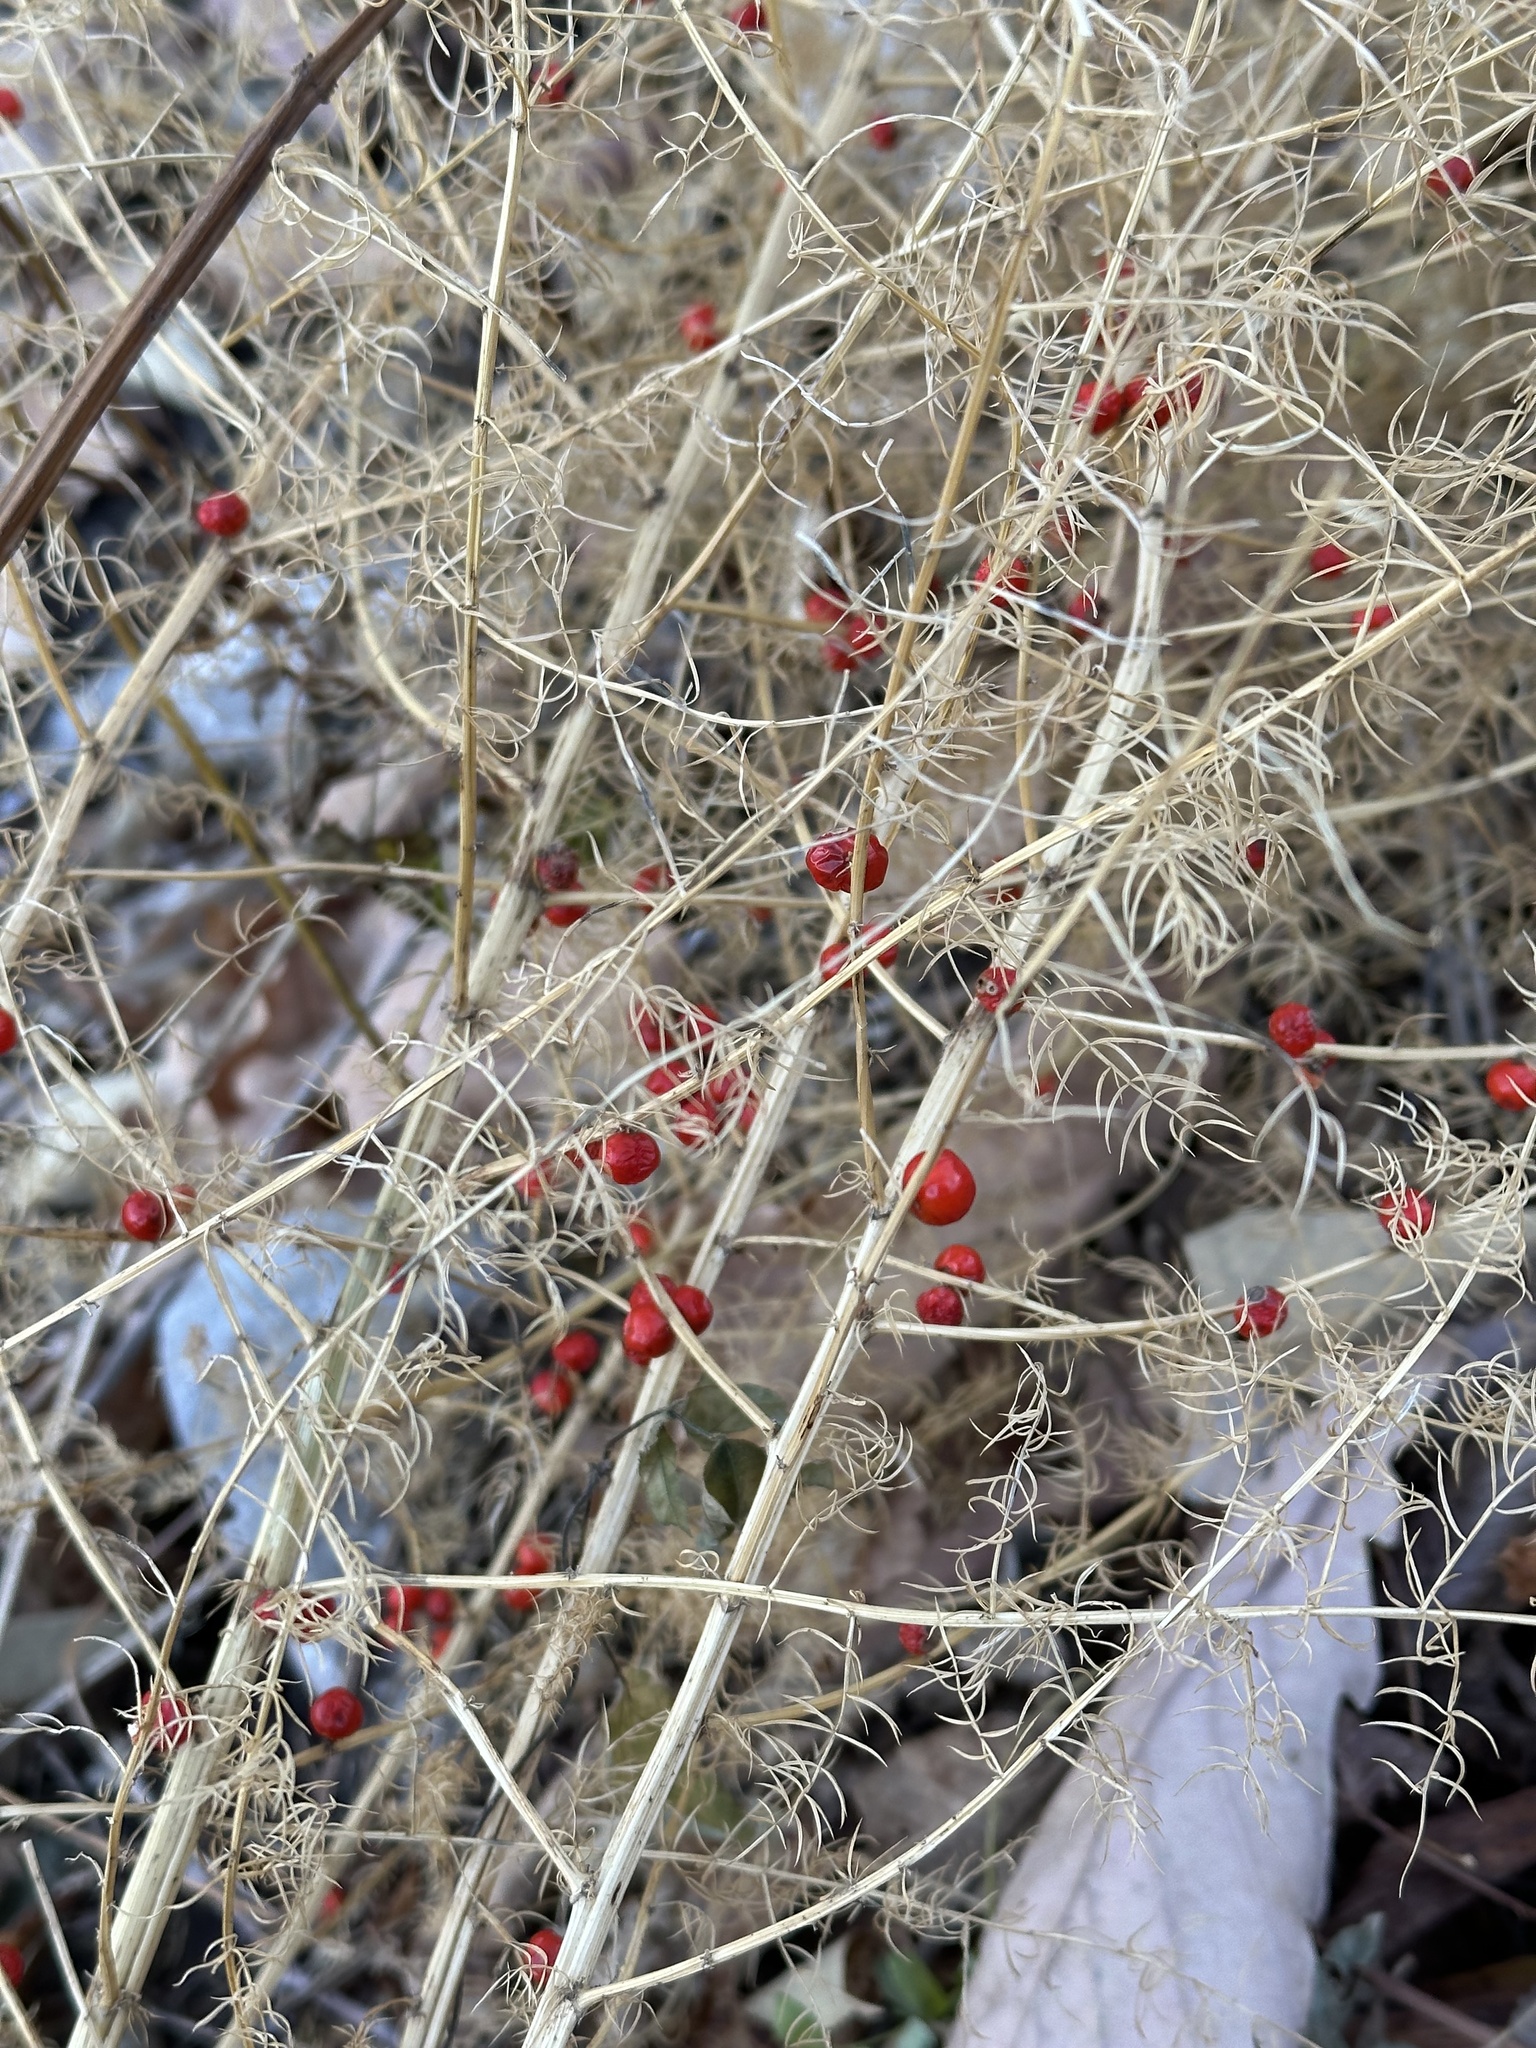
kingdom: Plantae
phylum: Tracheophyta
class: Liliopsida
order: Asparagales
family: Asparagaceae
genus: Asparagus
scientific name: Asparagus schoberioides
